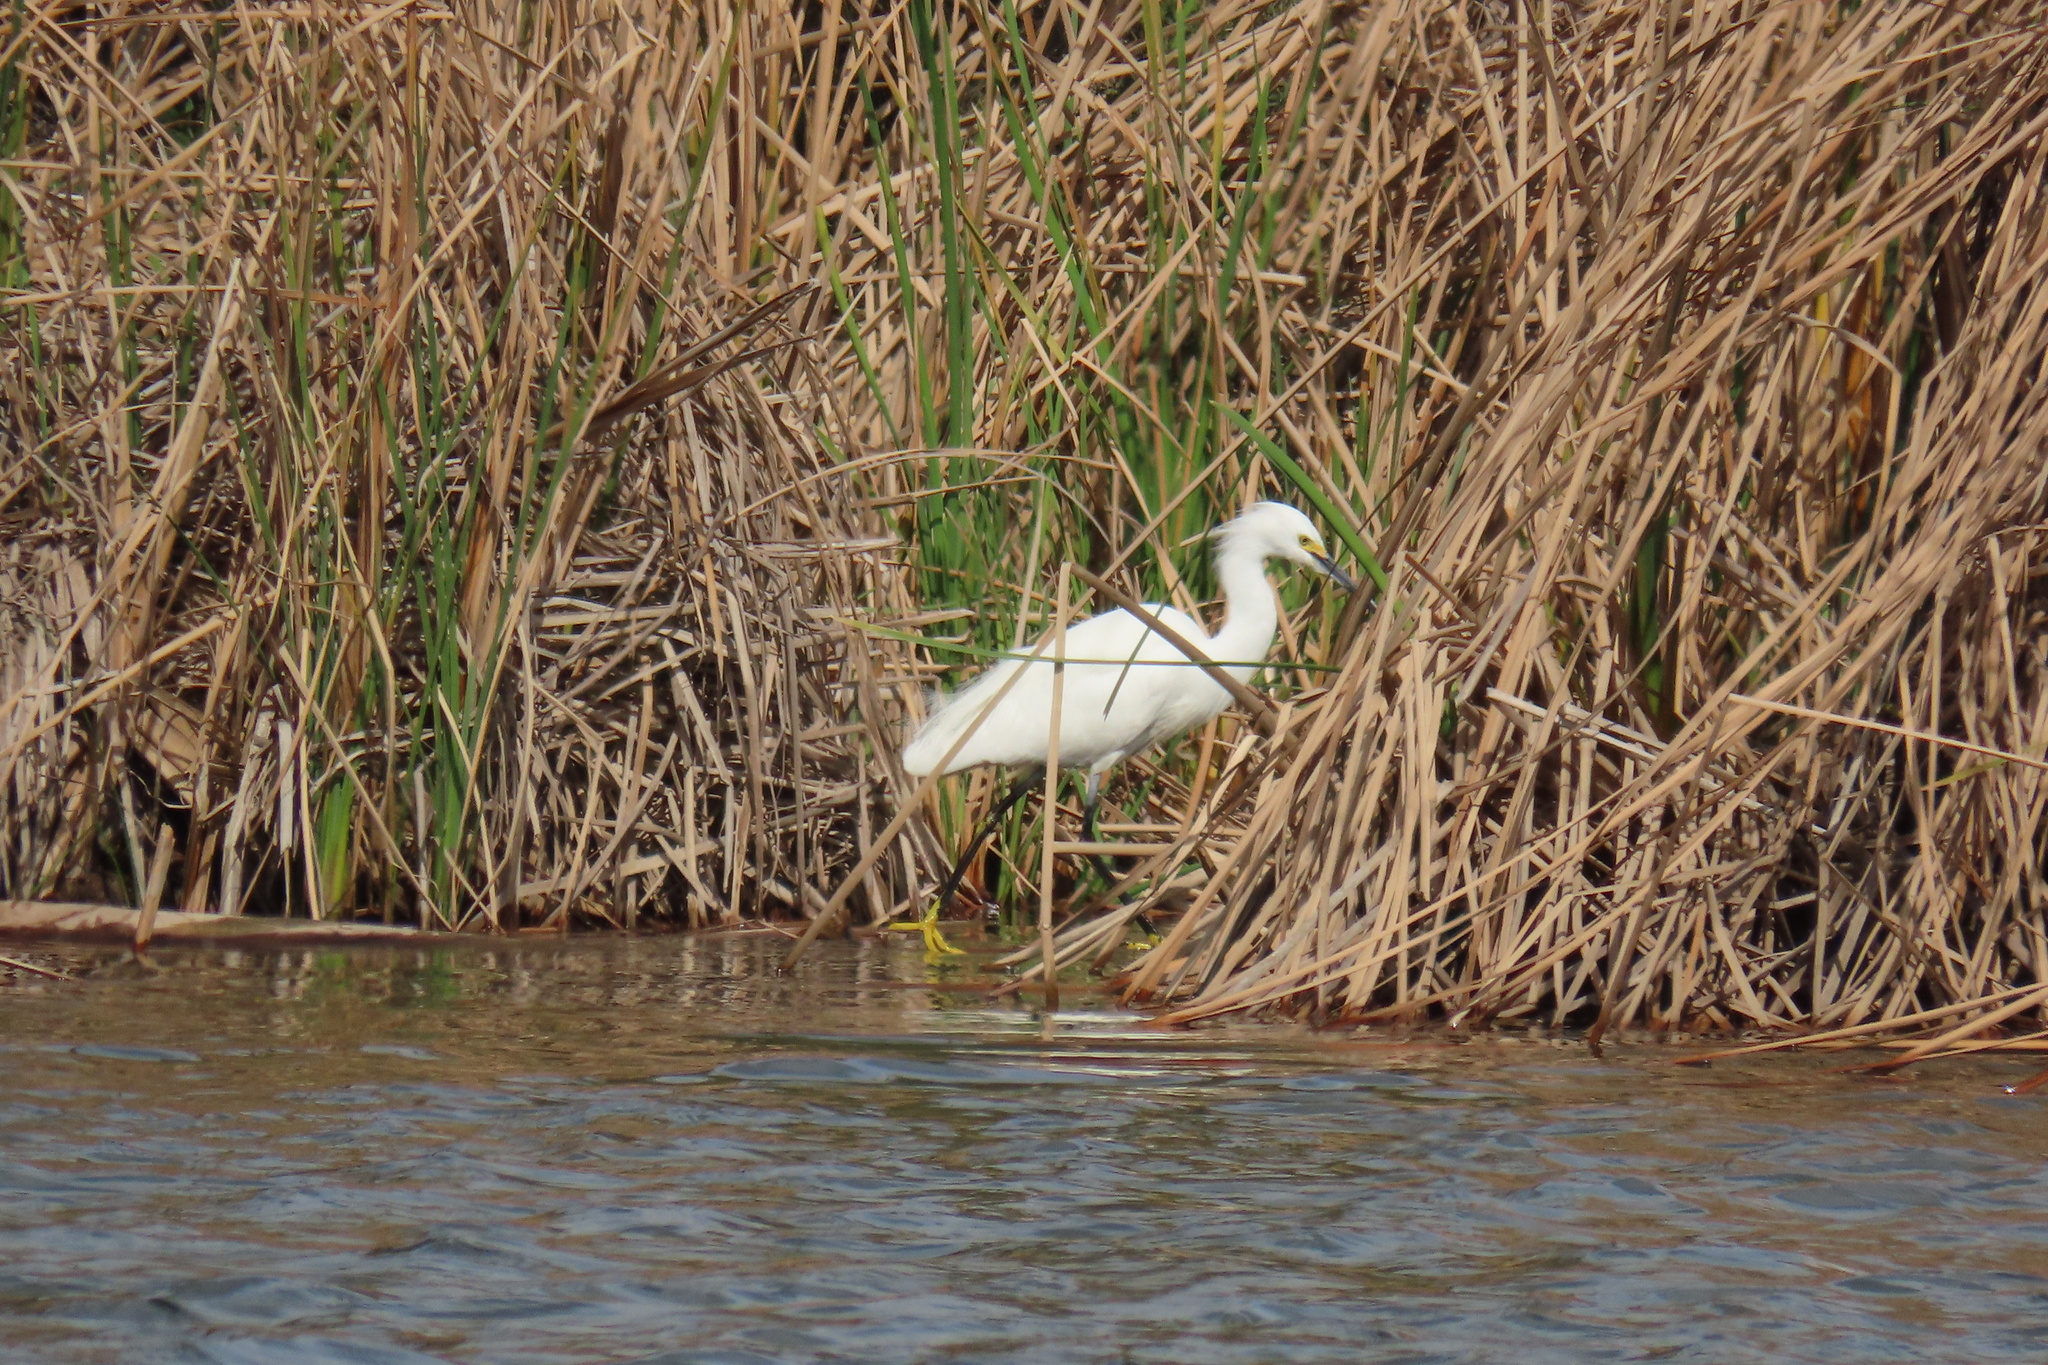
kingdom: Animalia
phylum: Chordata
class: Aves
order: Pelecaniformes
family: Ardeidae
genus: Egretta
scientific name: Egretta thula
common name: Snowy egret
